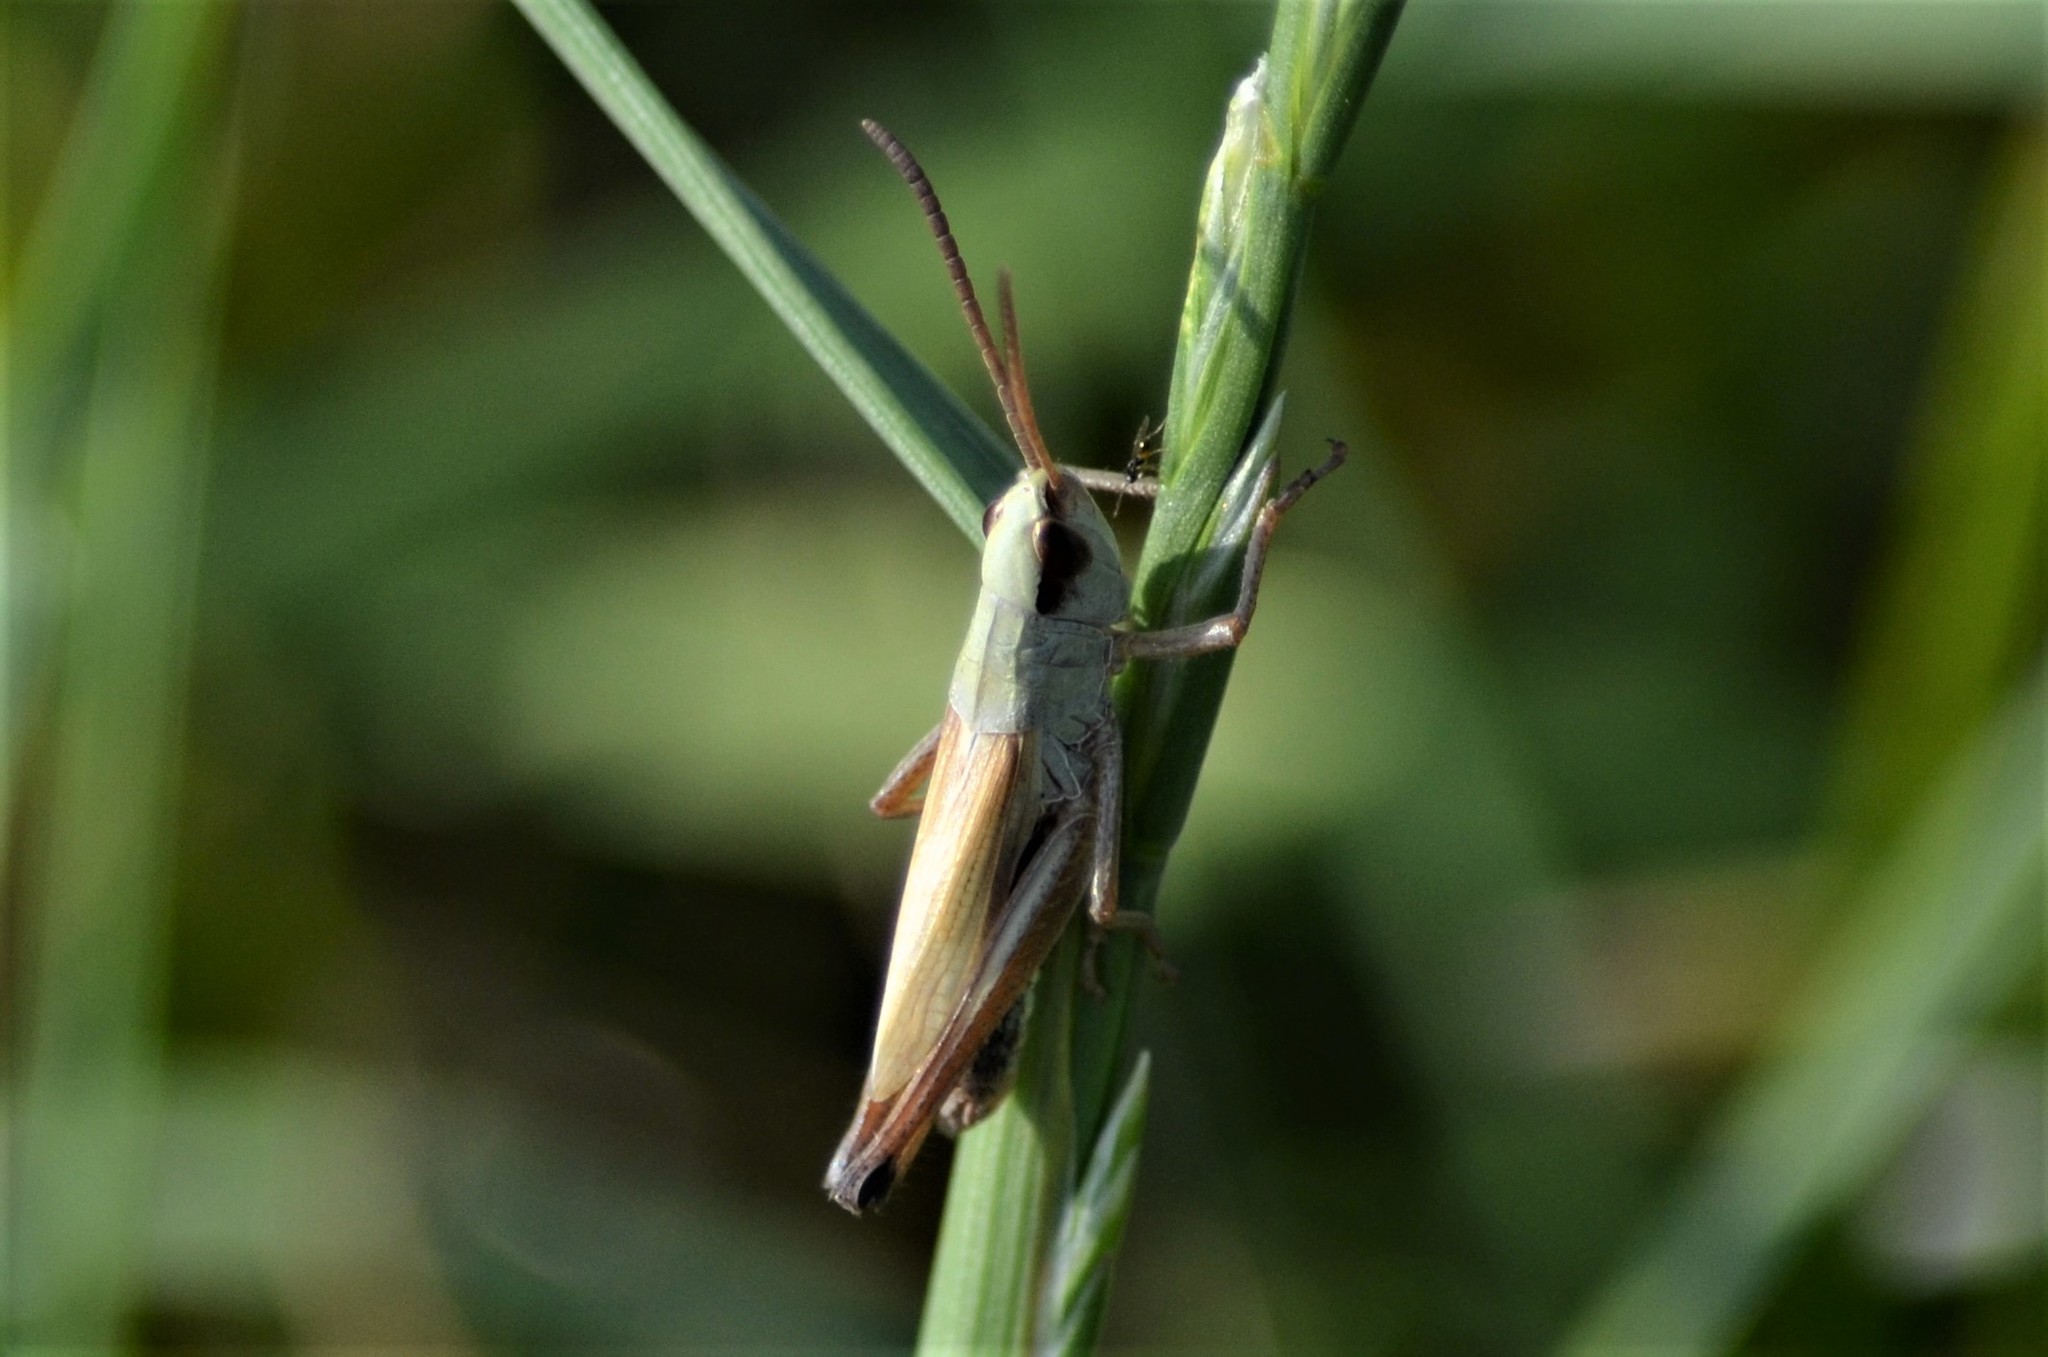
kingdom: Animalia
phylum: Arthropoda
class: Insecta
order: Orthoptera
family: Acrididae
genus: Pseudochorthippus
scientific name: Pseudochorthippus parallelus
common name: Meadow grasshopper
